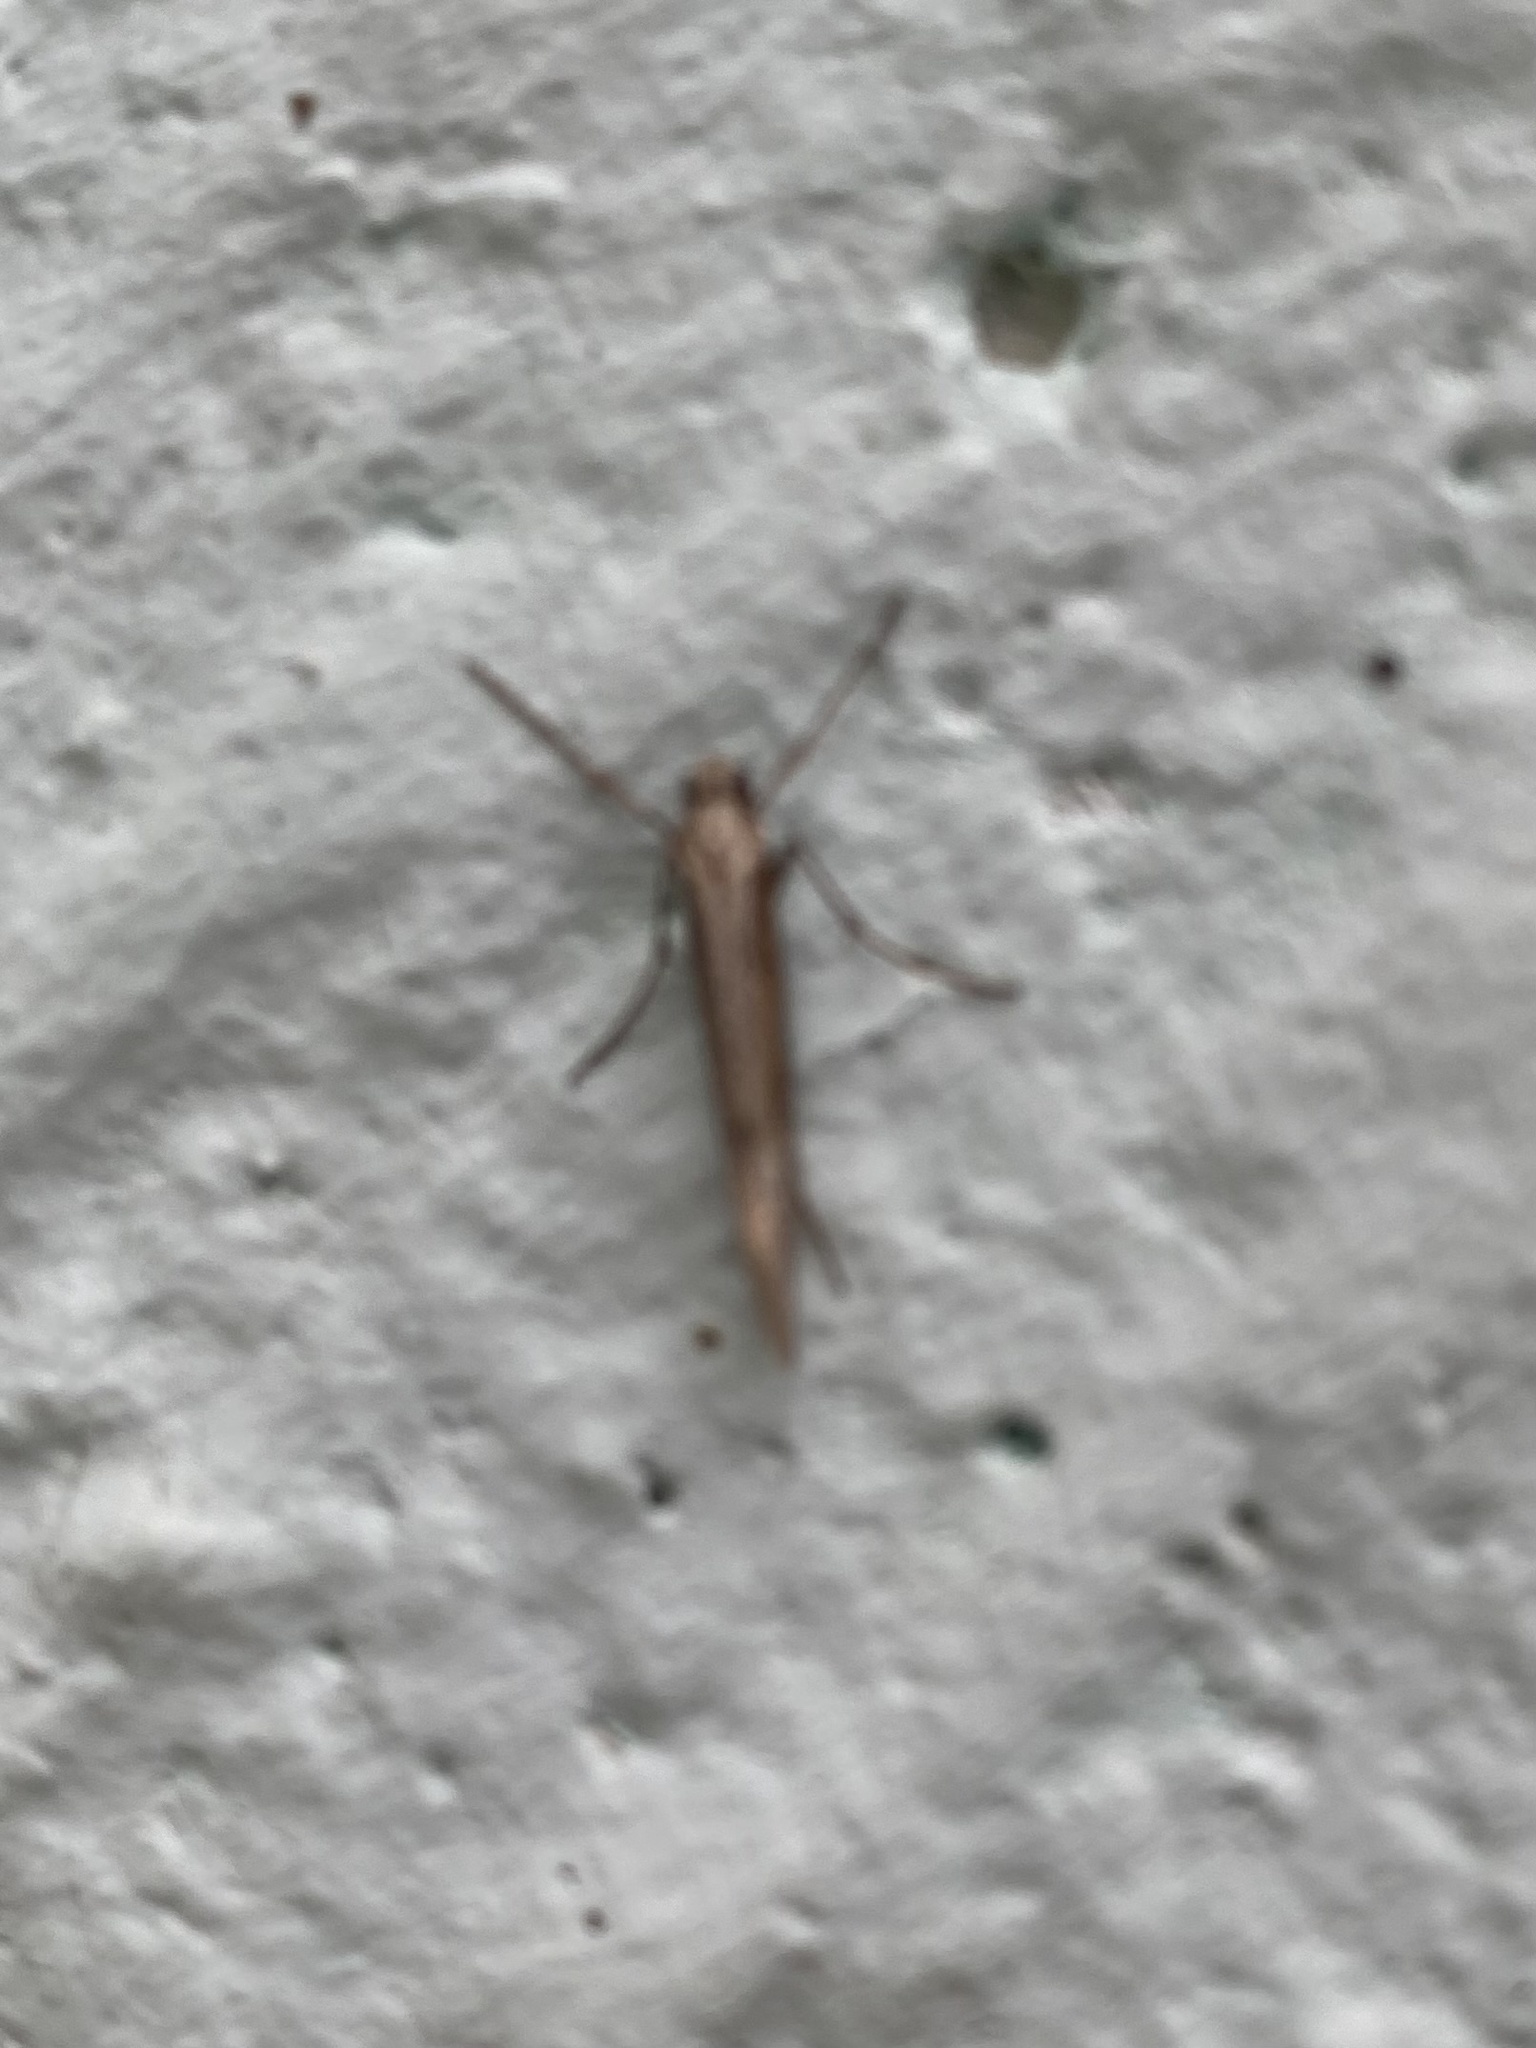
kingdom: Animalia
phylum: Arthropoda
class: Insecta
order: Lepidoptera
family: Eriocottidae
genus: Deuterotinea
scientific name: Deuterotinea casanella
